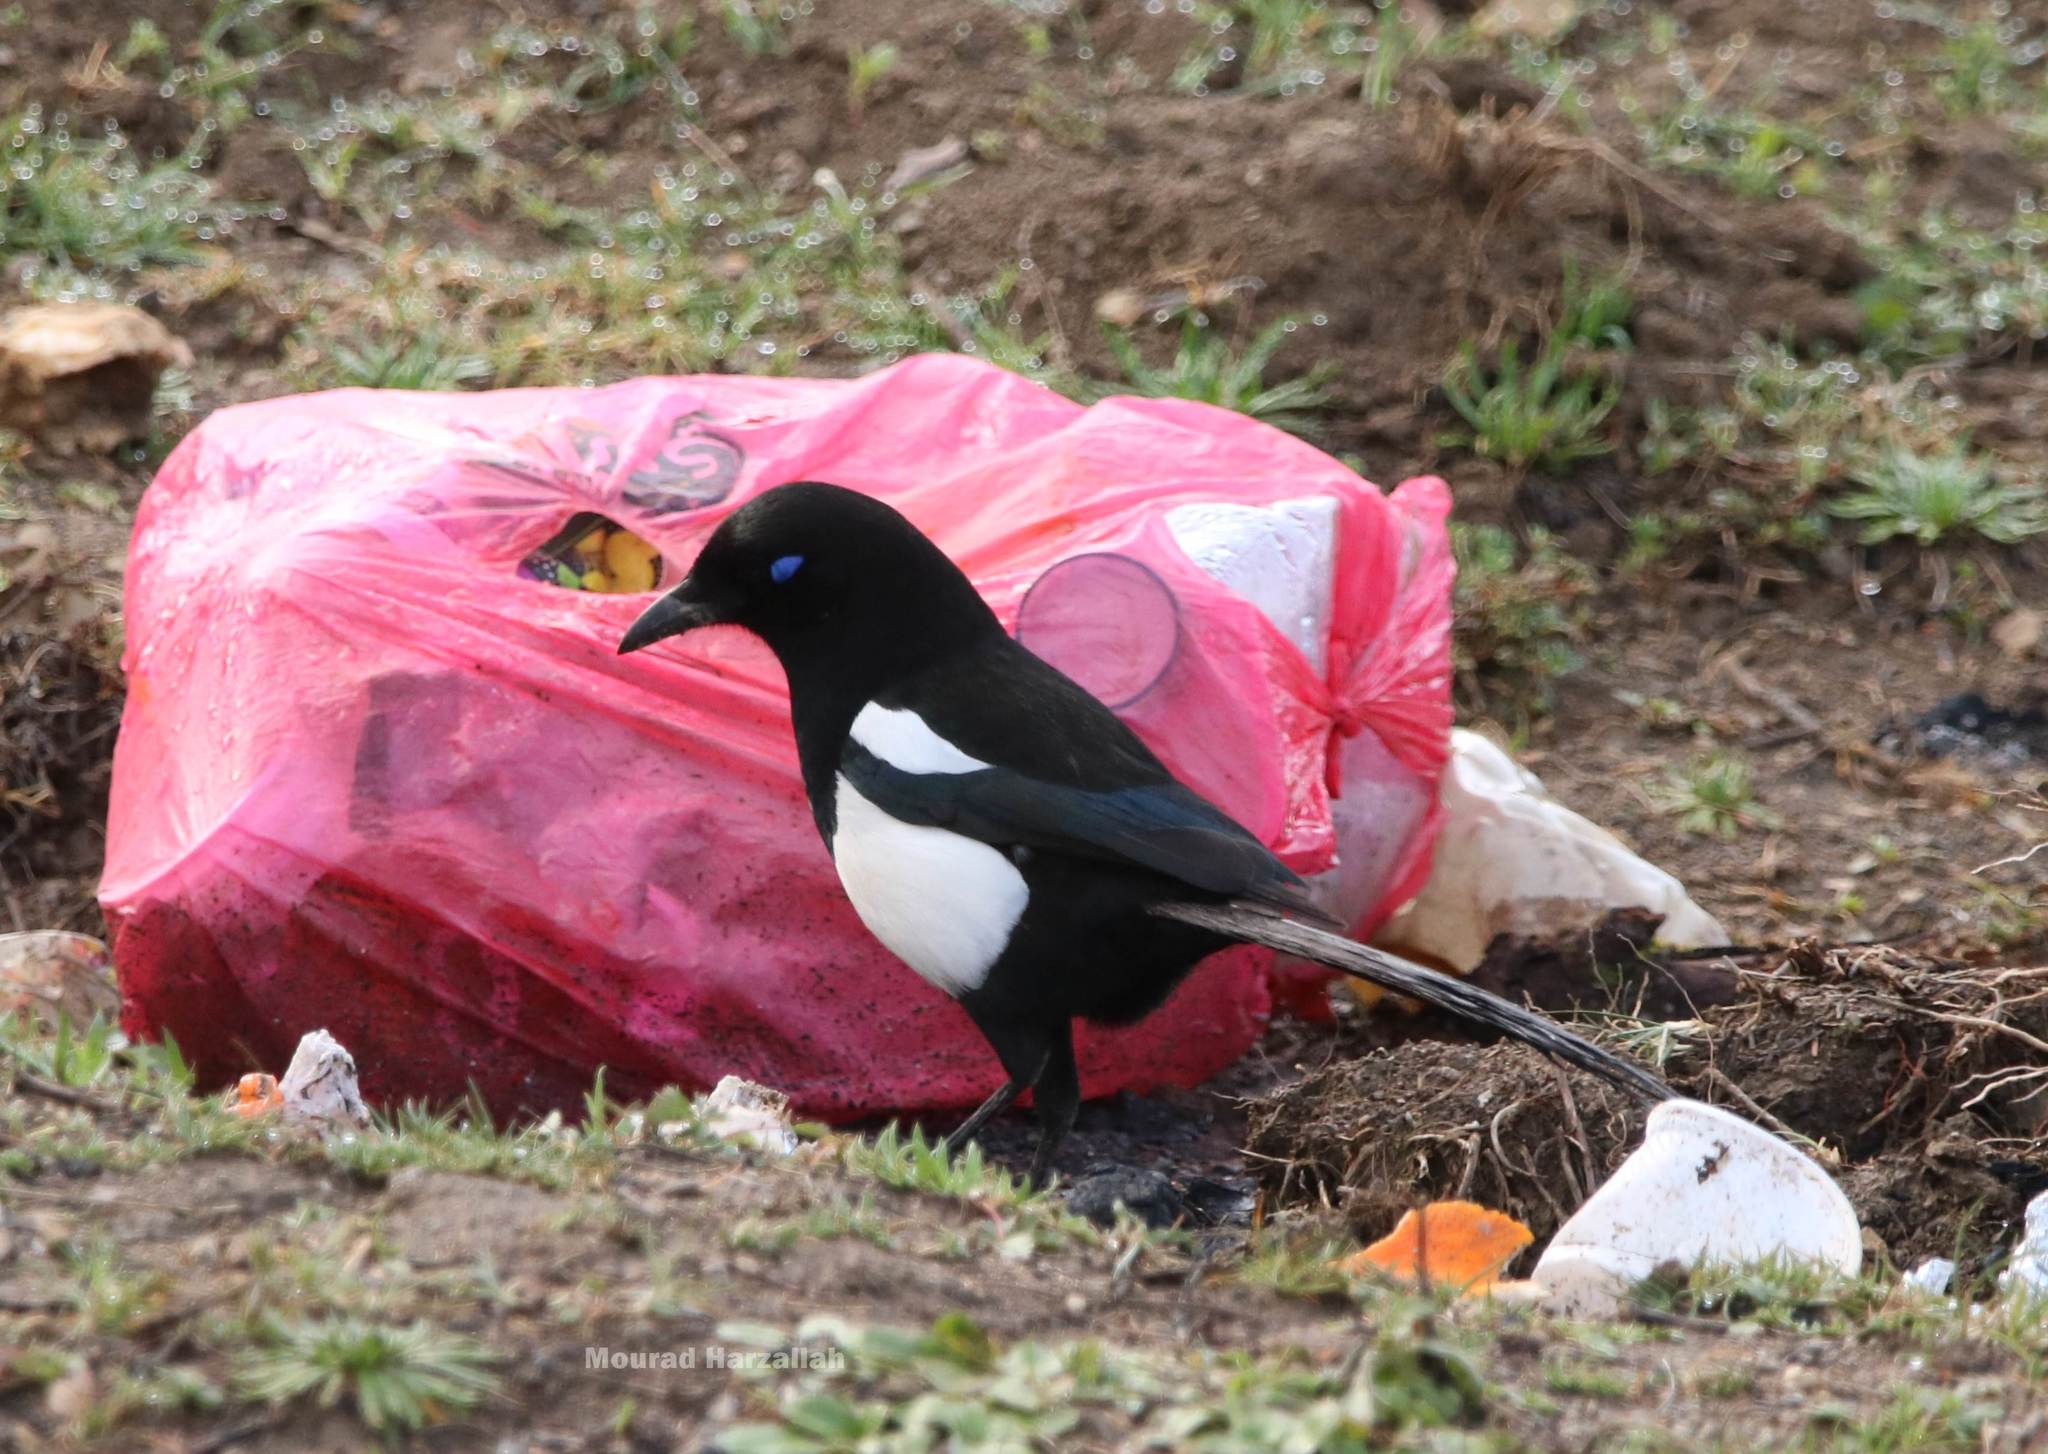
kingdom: Animalia
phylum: Chordata
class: Aves
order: Passeriformes
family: Corvidae
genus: Pica
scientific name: Pica mauritanica
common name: Maghreb magpie
